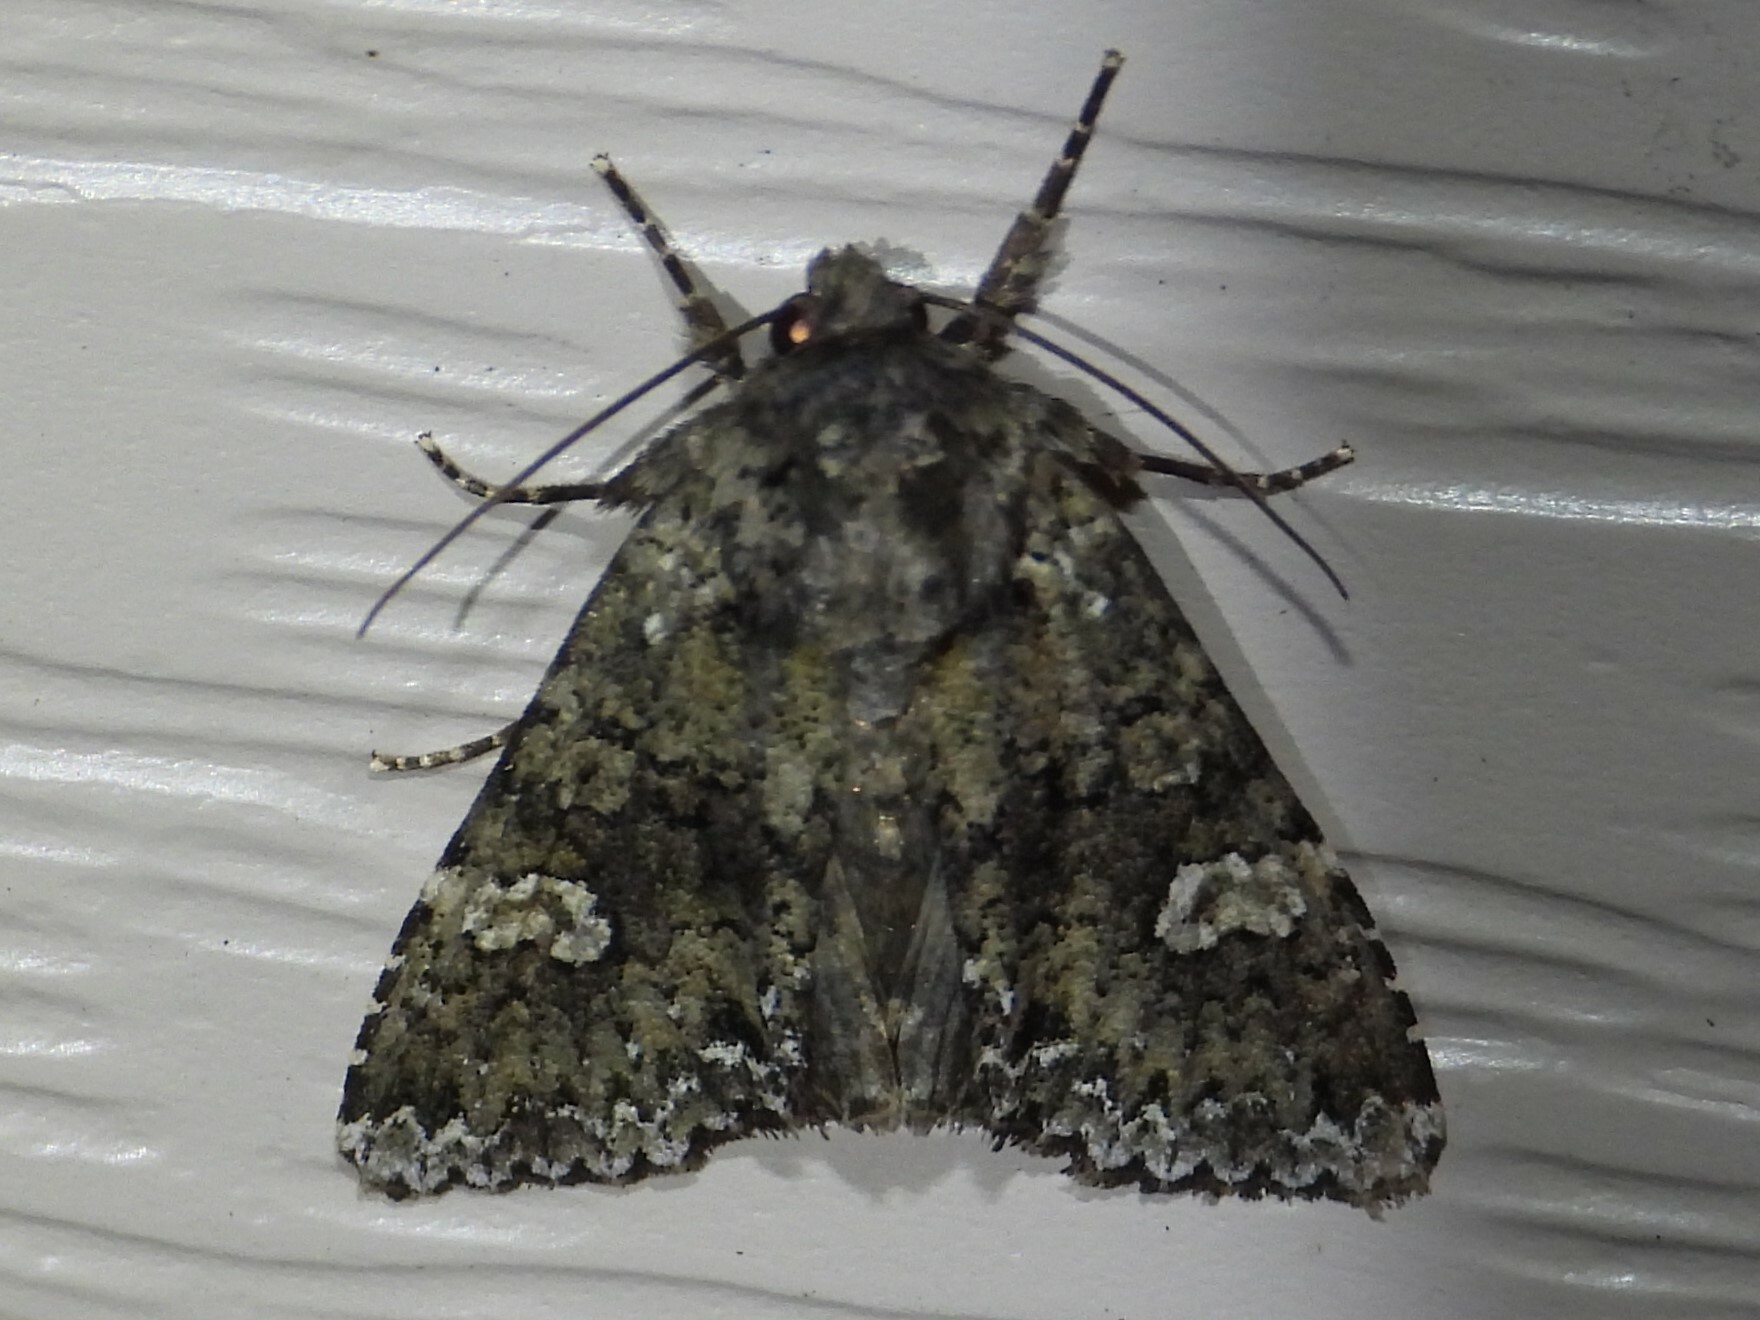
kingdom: Animalia
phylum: Arthropoda
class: Insecta
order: Lepidoptera
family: Noctuidae
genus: Melanchra
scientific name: Melanchra adjuncta
